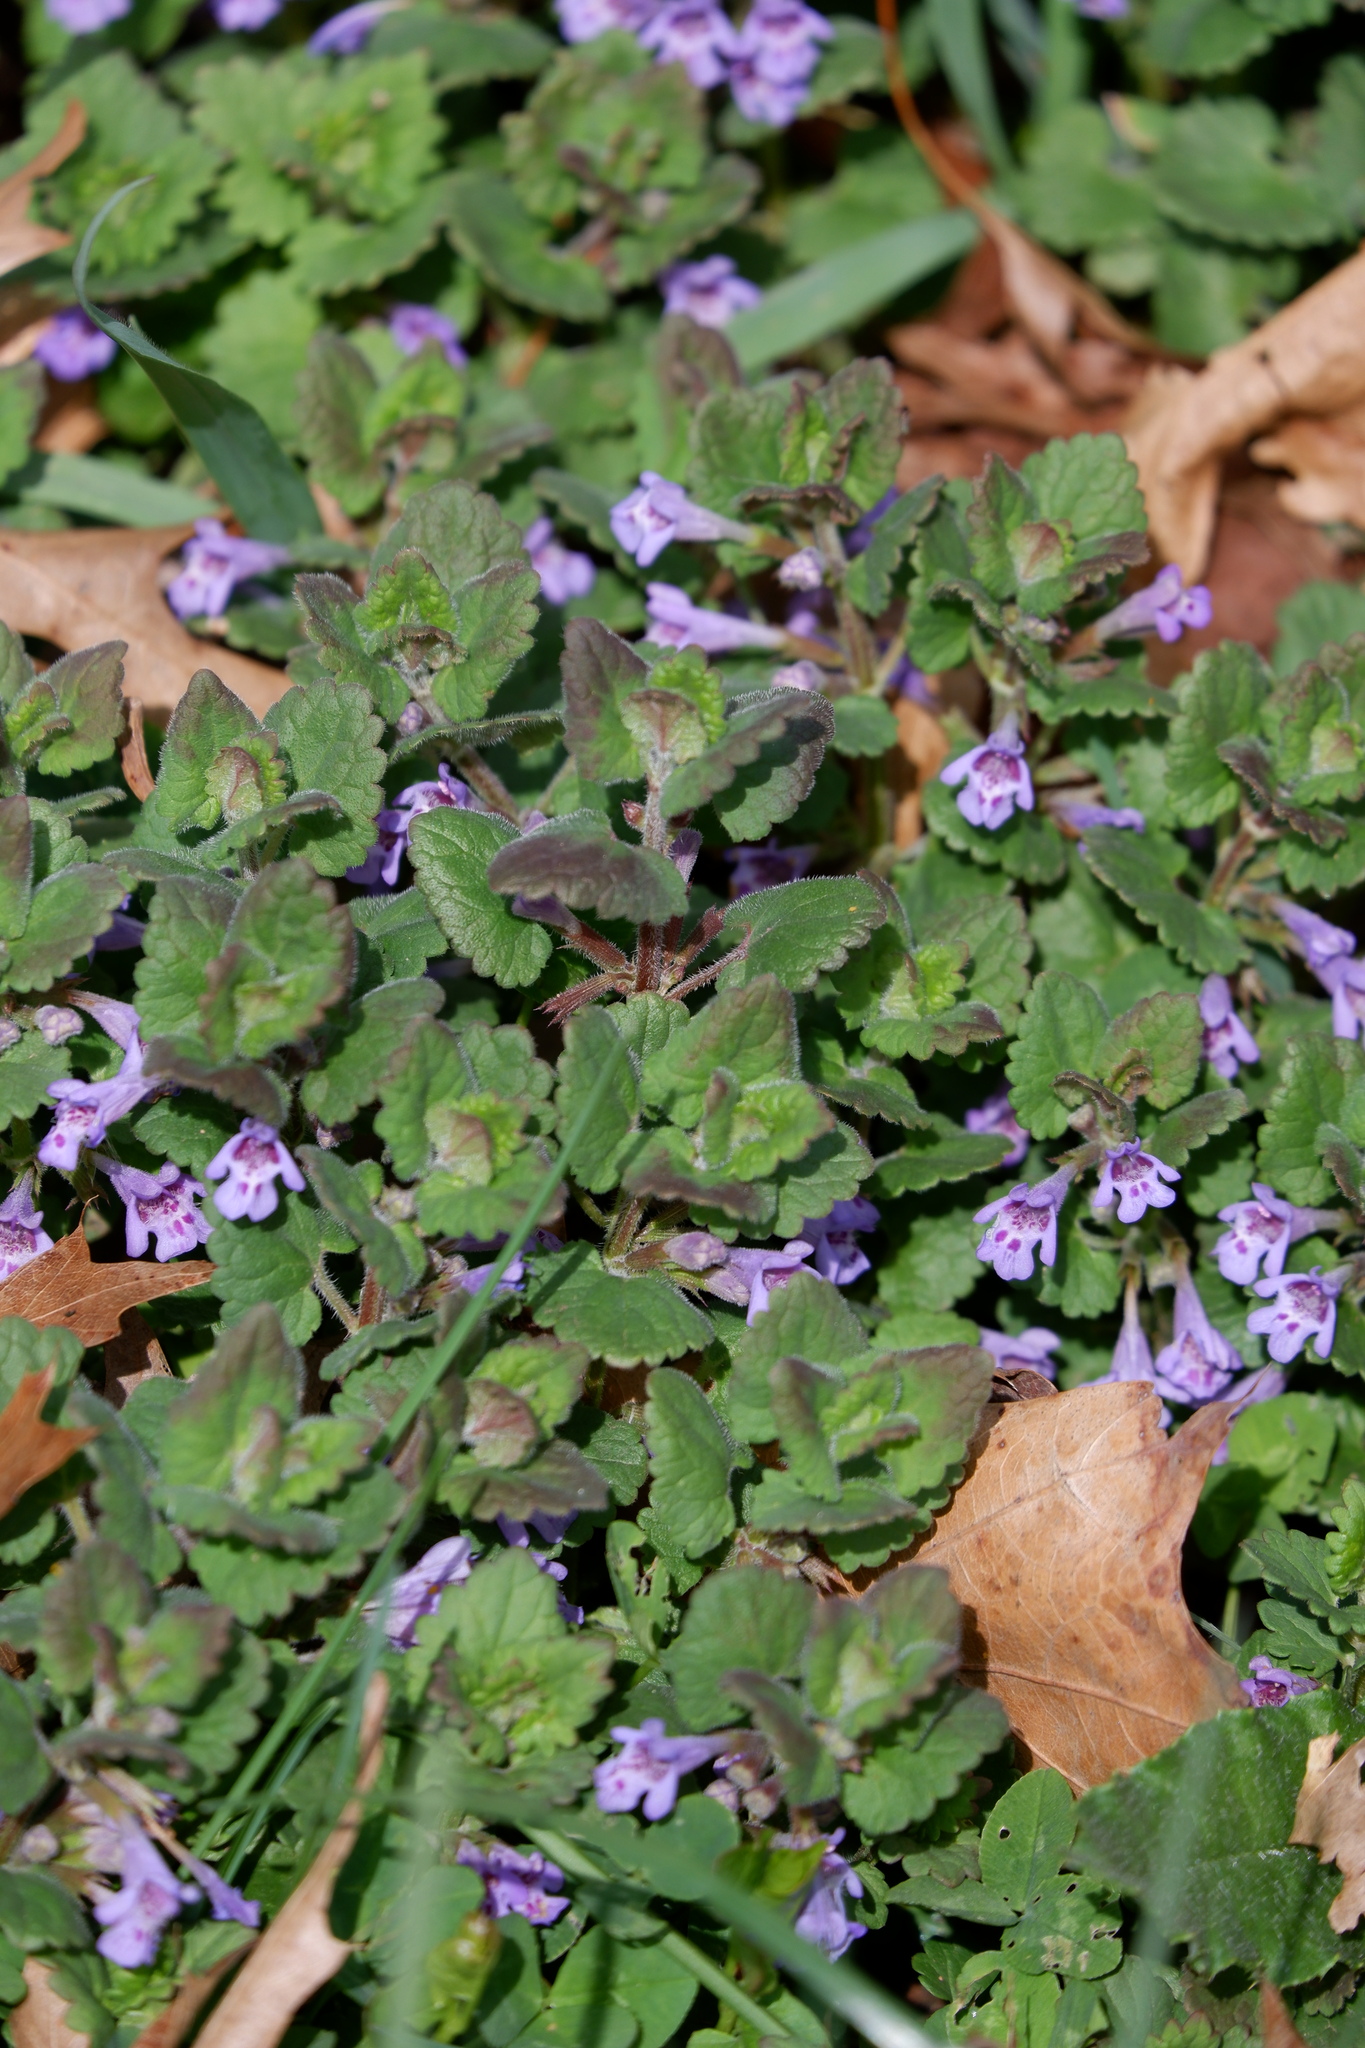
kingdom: Plantae
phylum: Tracheophyta
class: Magnoliopsida
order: Lamiales
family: Lamiaceae
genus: Glechoma
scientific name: Glechoma hederacea
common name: Ground ivy
